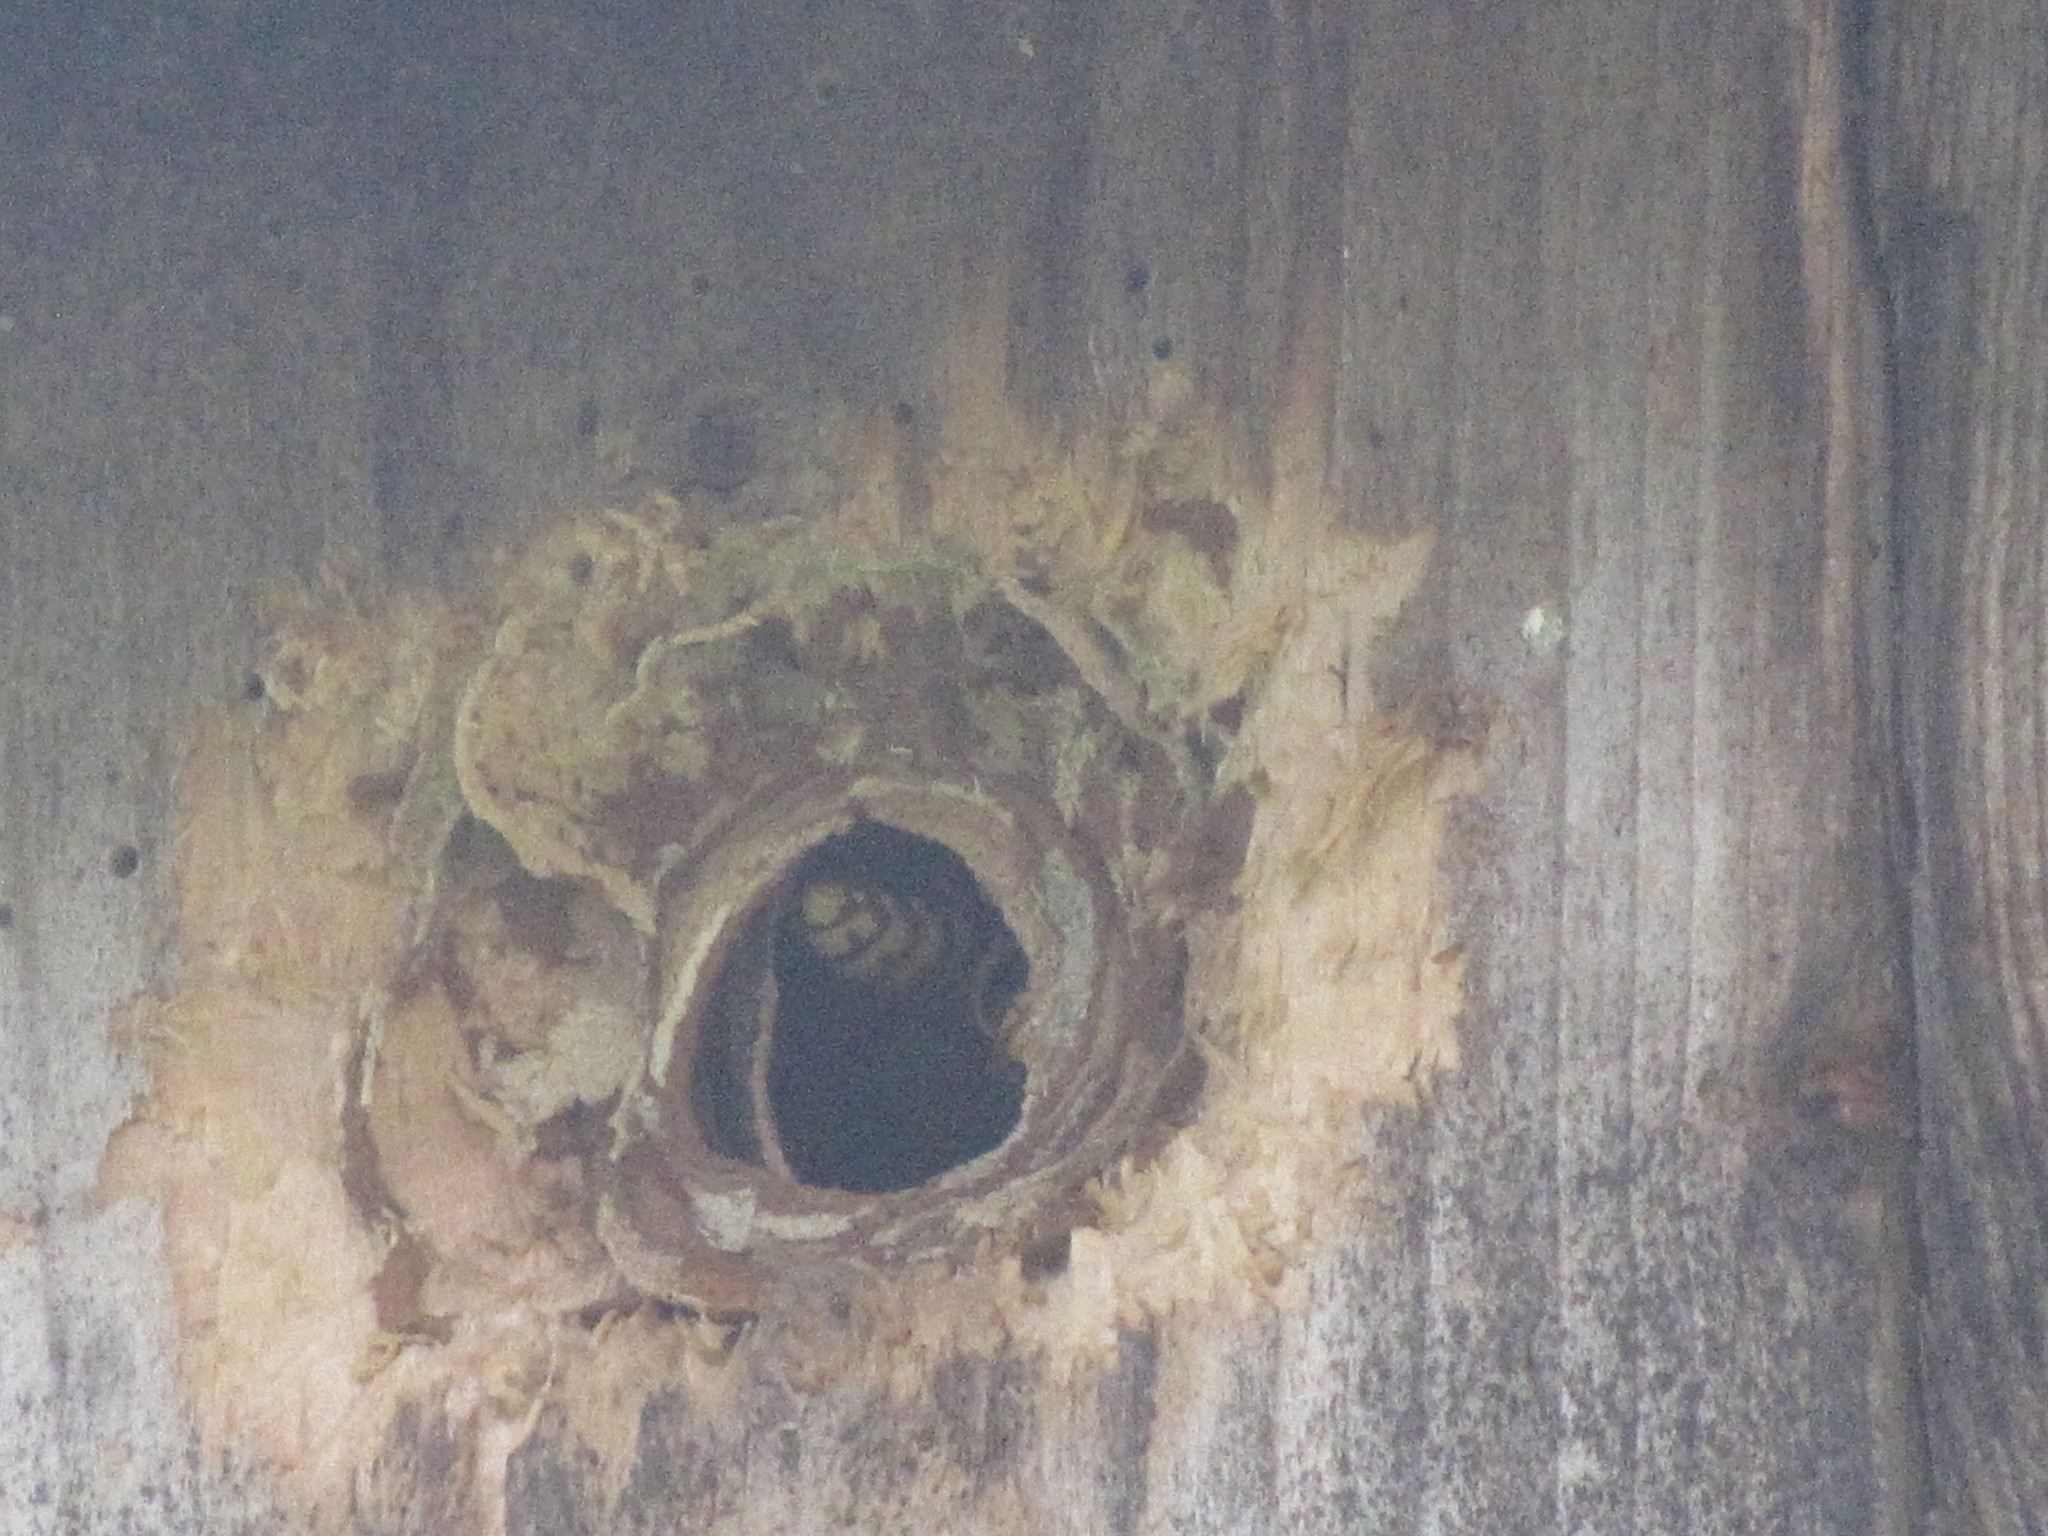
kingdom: Animalia
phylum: Arthropoda
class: Insecta
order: Hymenoptera
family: Vespidae
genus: Vespa
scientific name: Vespa crabro
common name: Hornet
